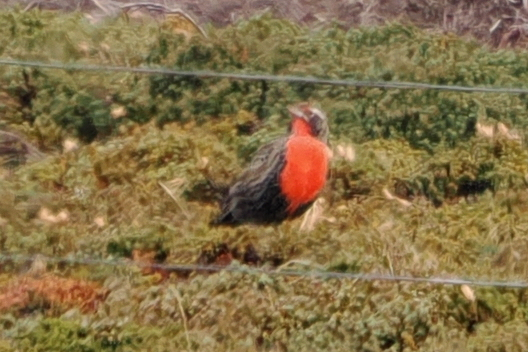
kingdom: Animalia
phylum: Chordata
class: Aves
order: Passeriformes
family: Icteridae
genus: Sturnella
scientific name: Sturnella loyca
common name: Long-tailed meadowlark
